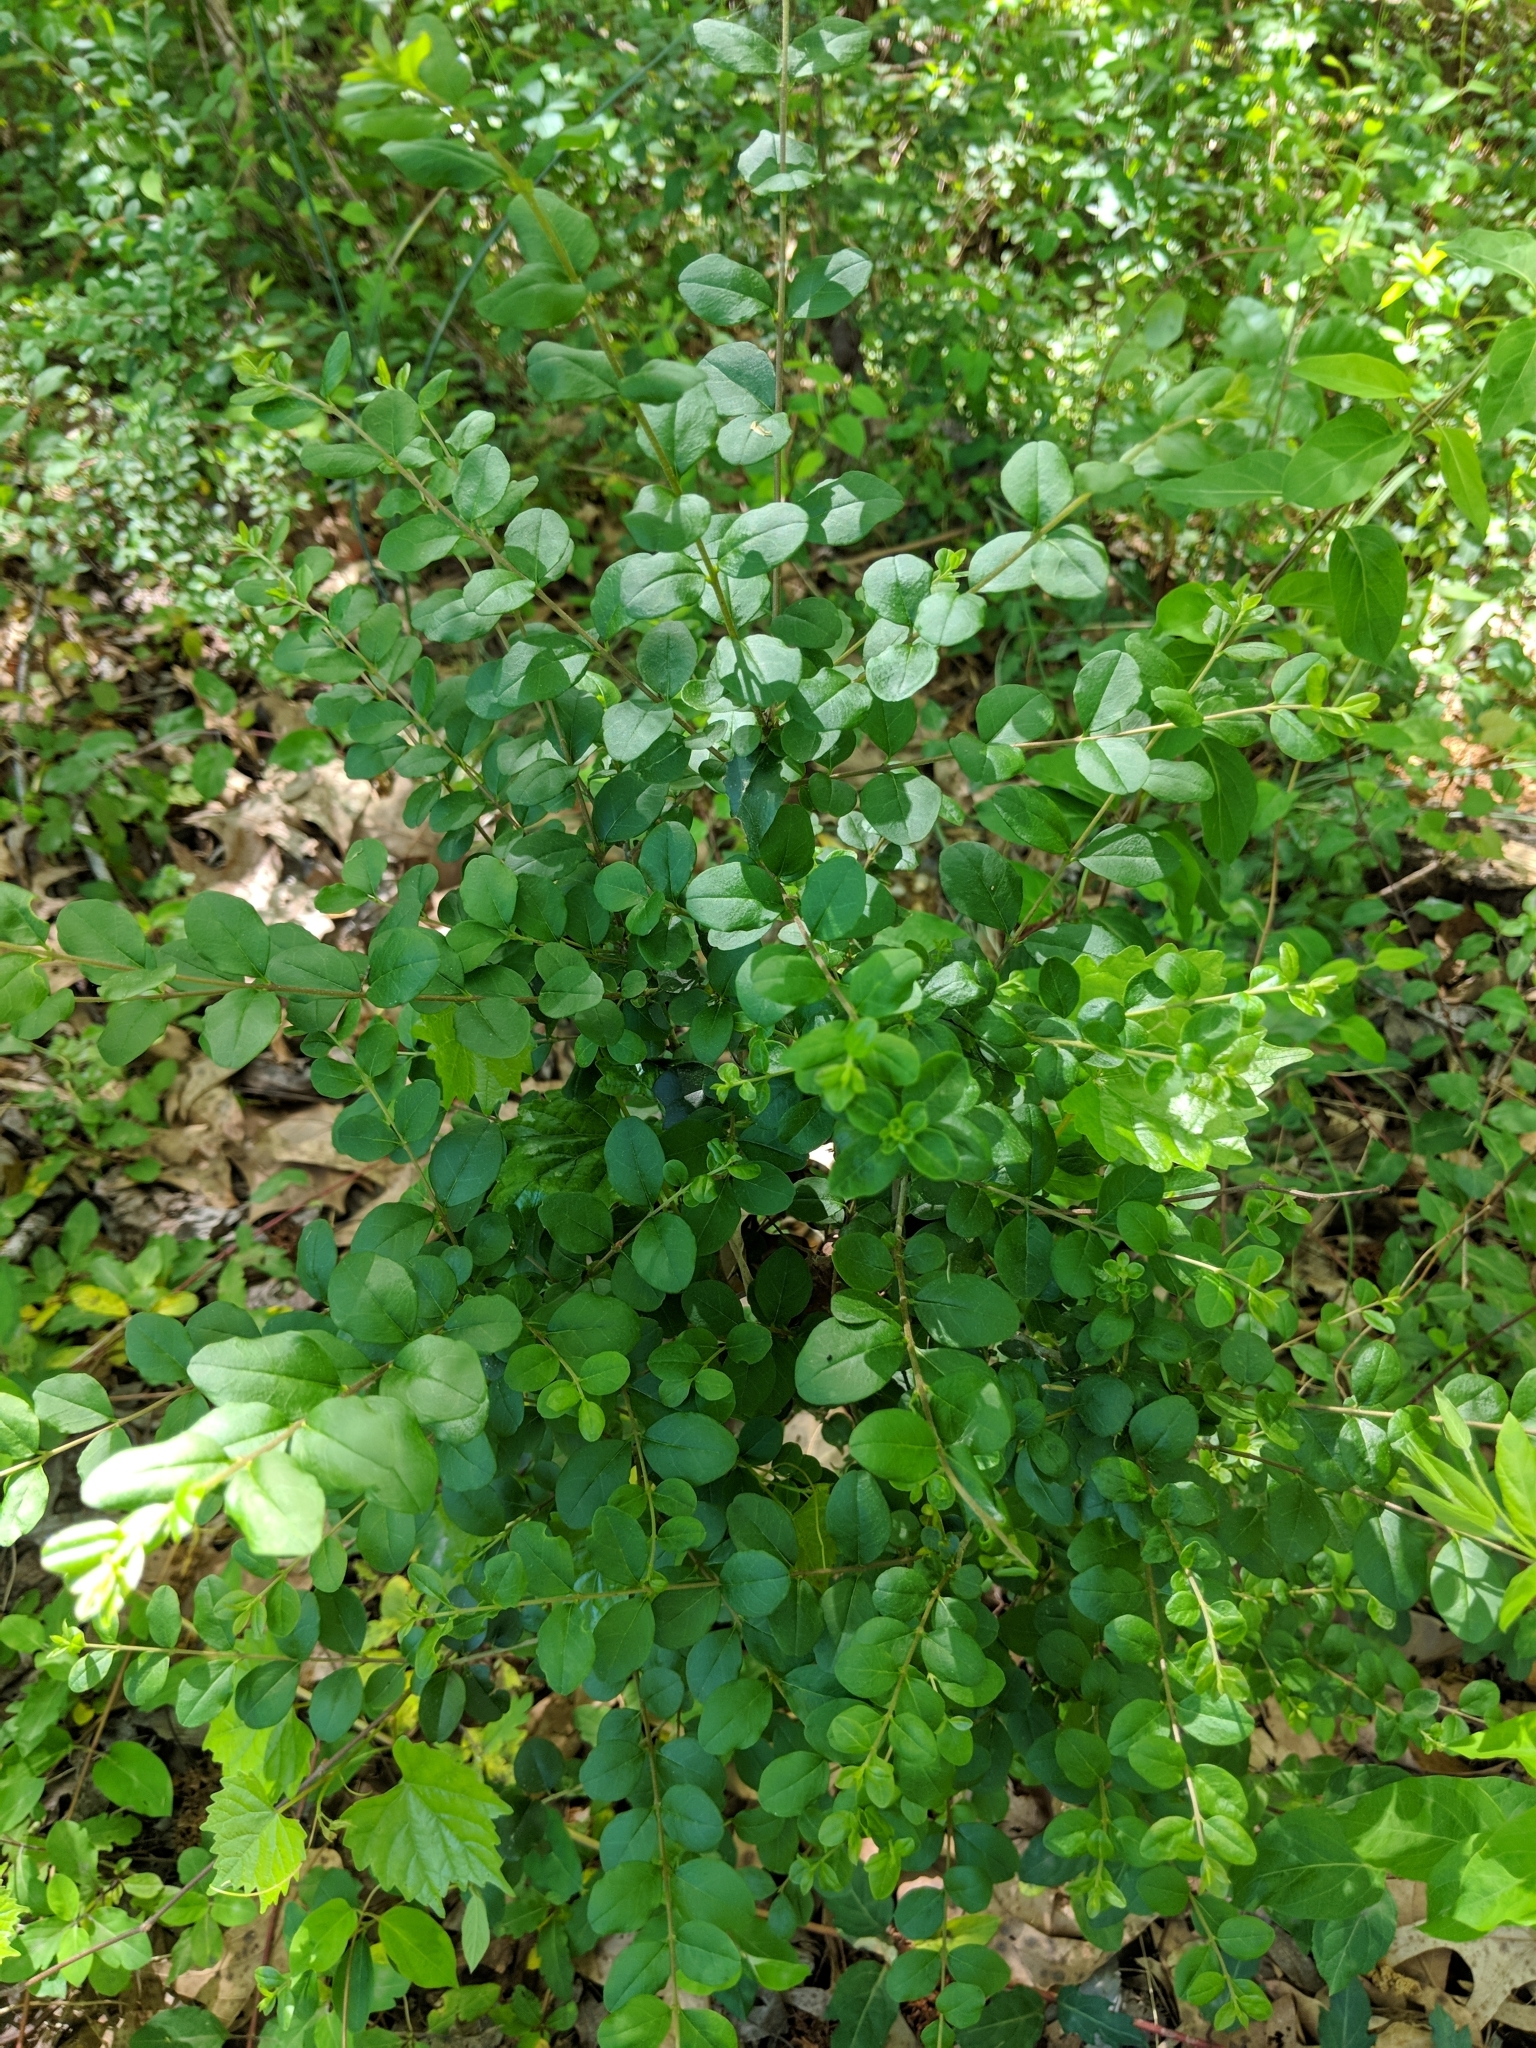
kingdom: Plantae
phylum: Tracheophyta
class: Magnoliopsida
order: Lamiales
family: Oleaceae
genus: Ligustrum
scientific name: Ligustrum sinense
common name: Chinese privet
